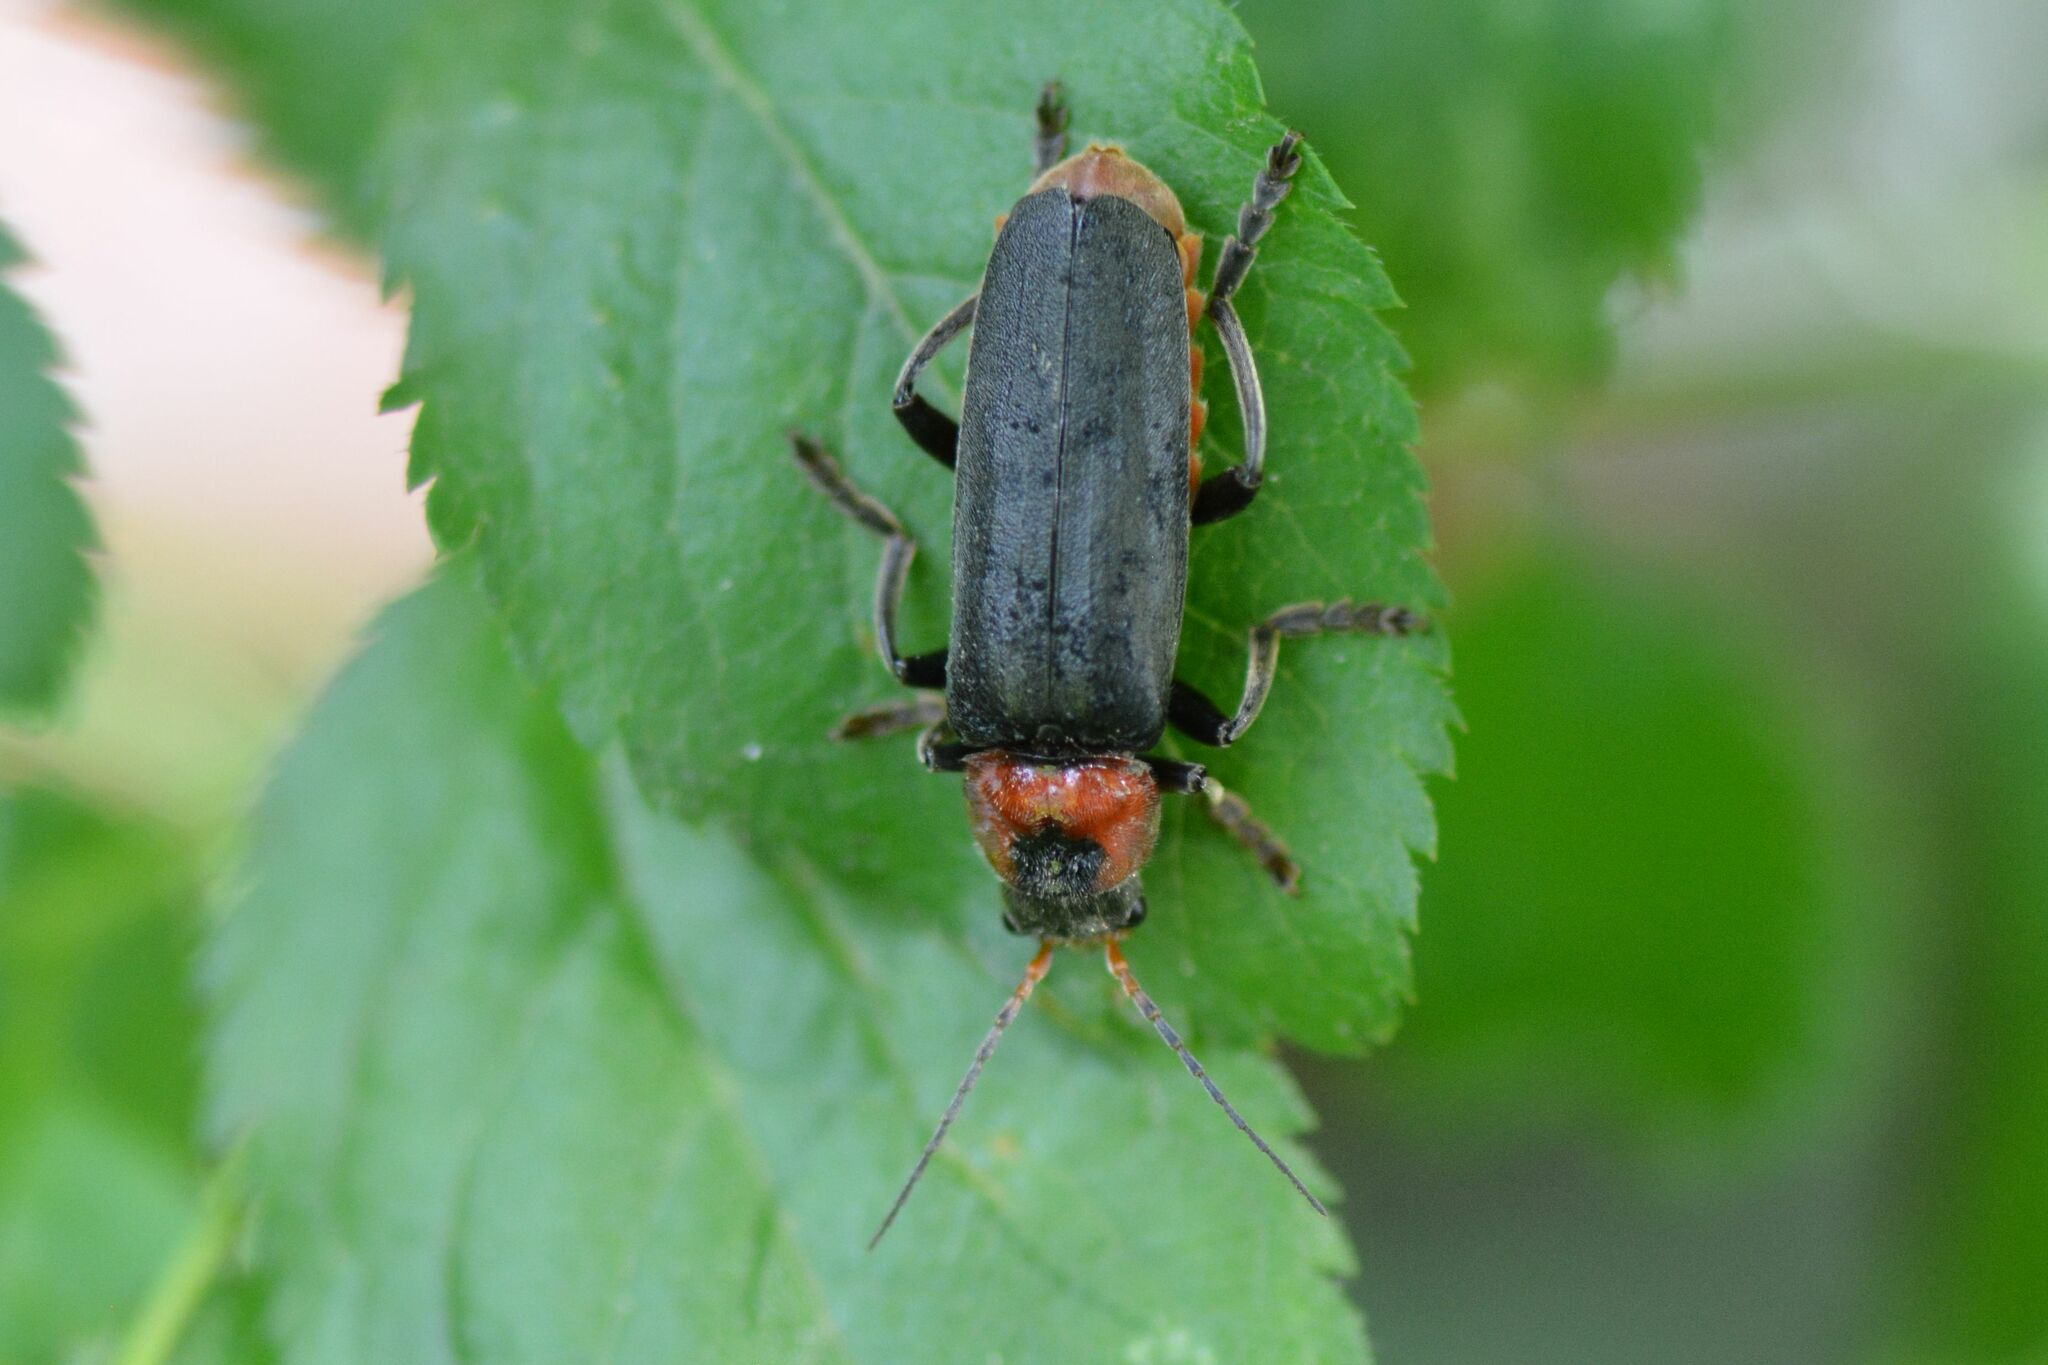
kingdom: Animalia
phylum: Arthropoda
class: Insecta
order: Coleoptera
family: Cantharidae
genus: Cantharis
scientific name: Cantharis fusca
